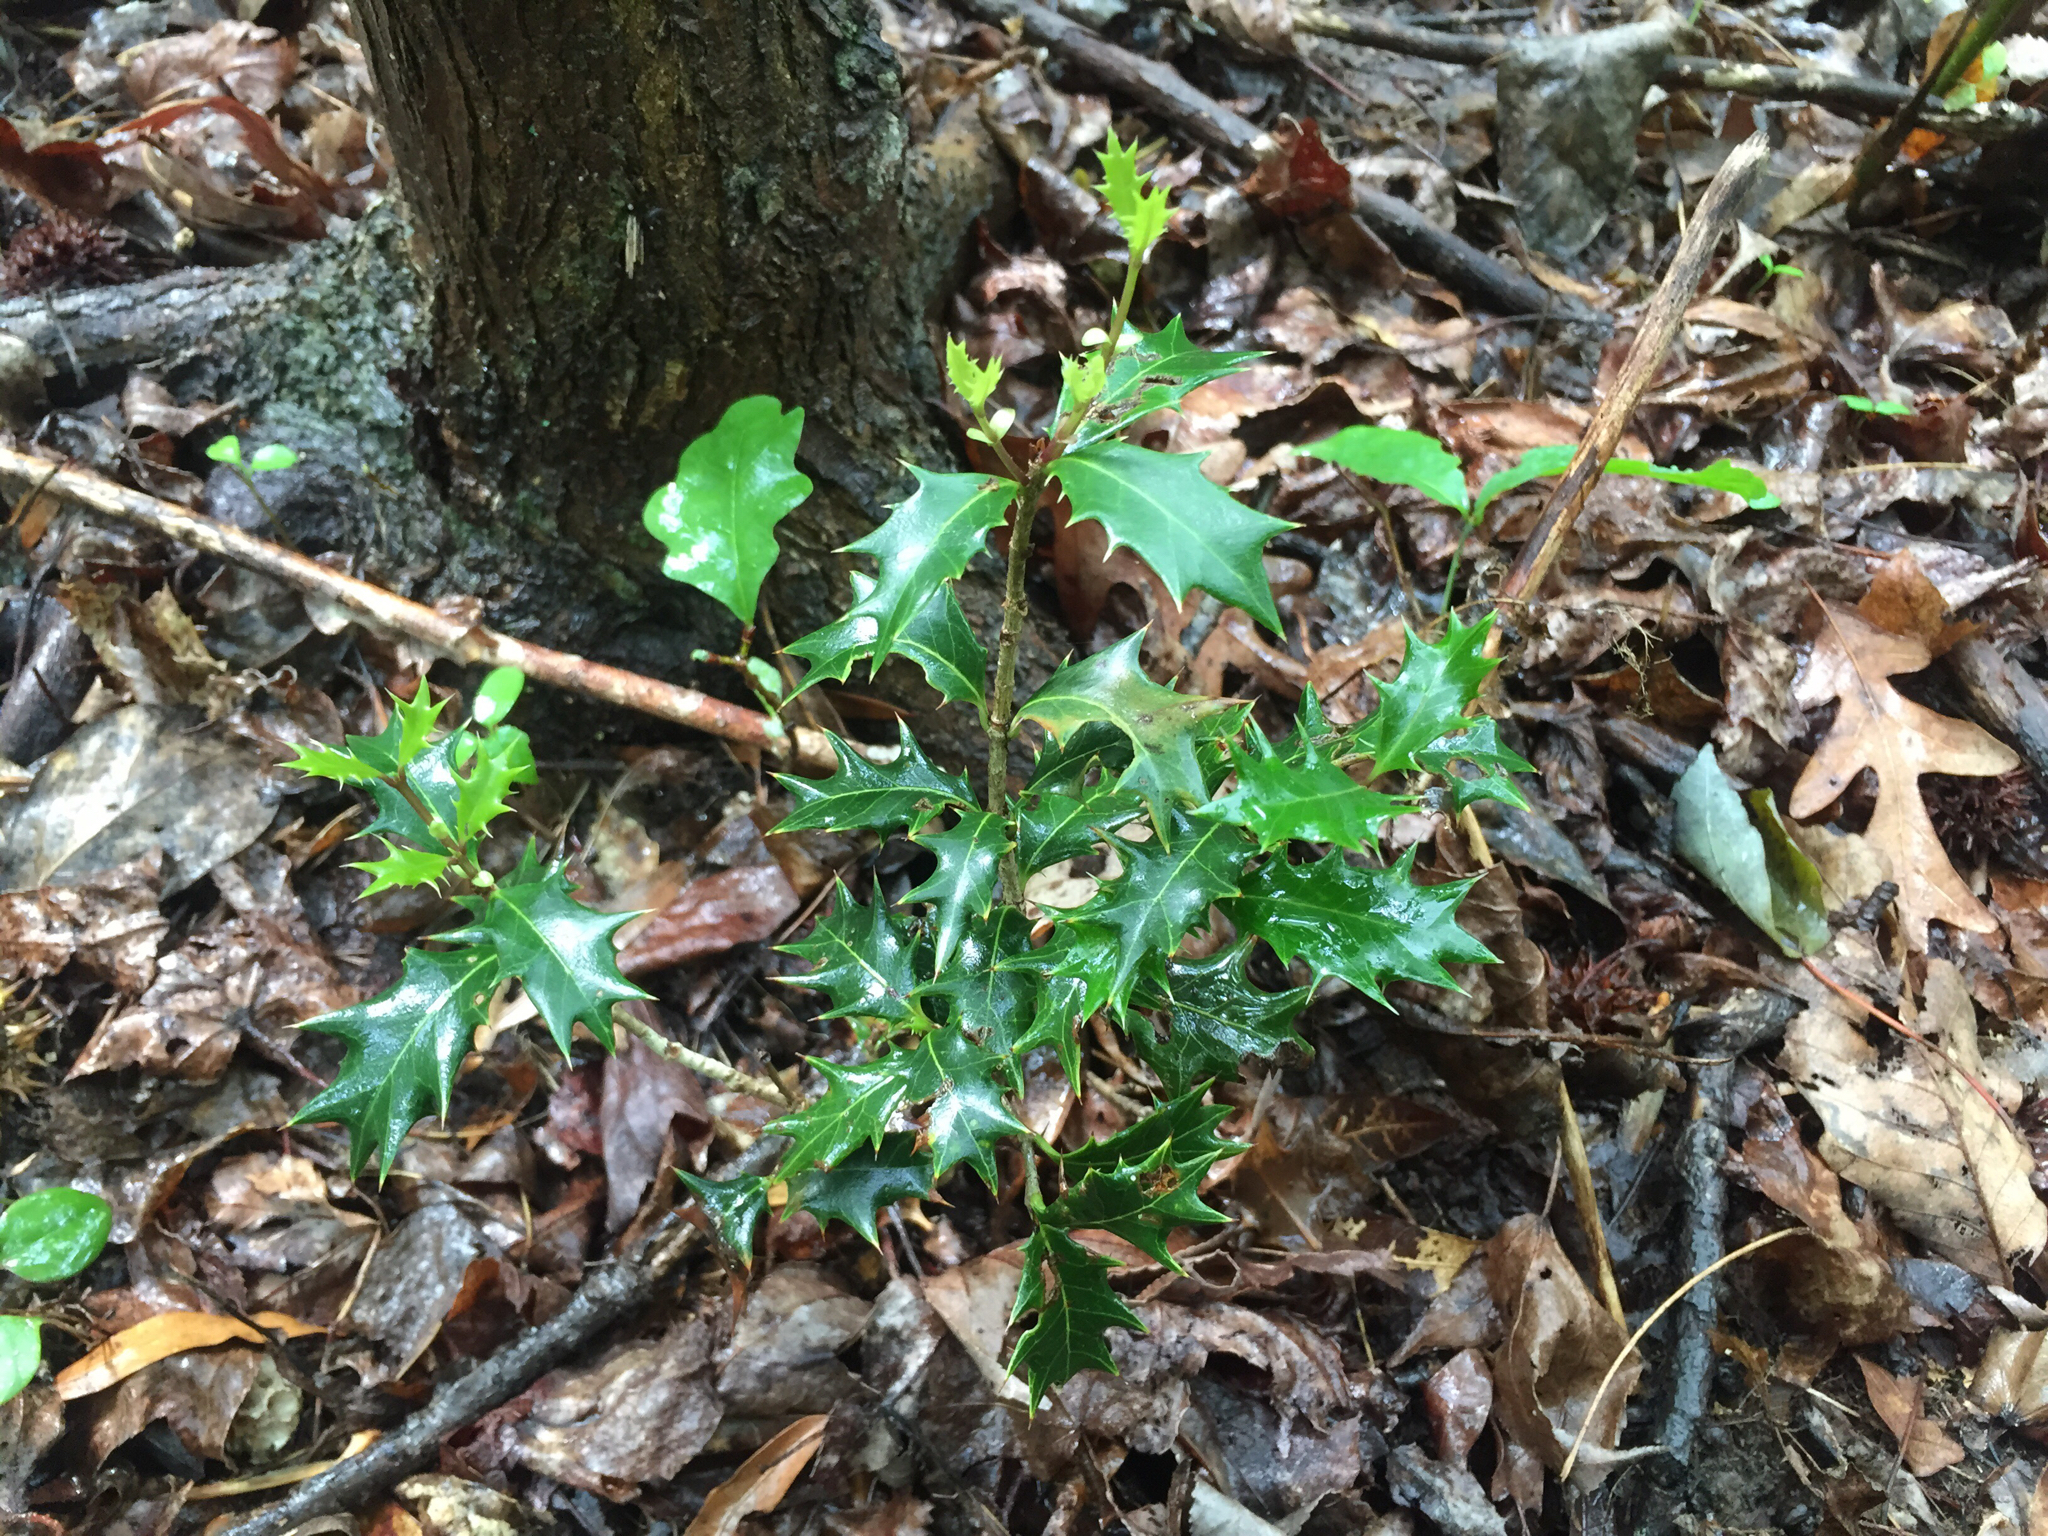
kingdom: Plantae
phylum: Tracheophyta
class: Magnoliopsida
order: Lamiales
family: Oleaceae
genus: Osmanthus
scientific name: Osmanthus heterophyllus
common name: Holly osmanthus
